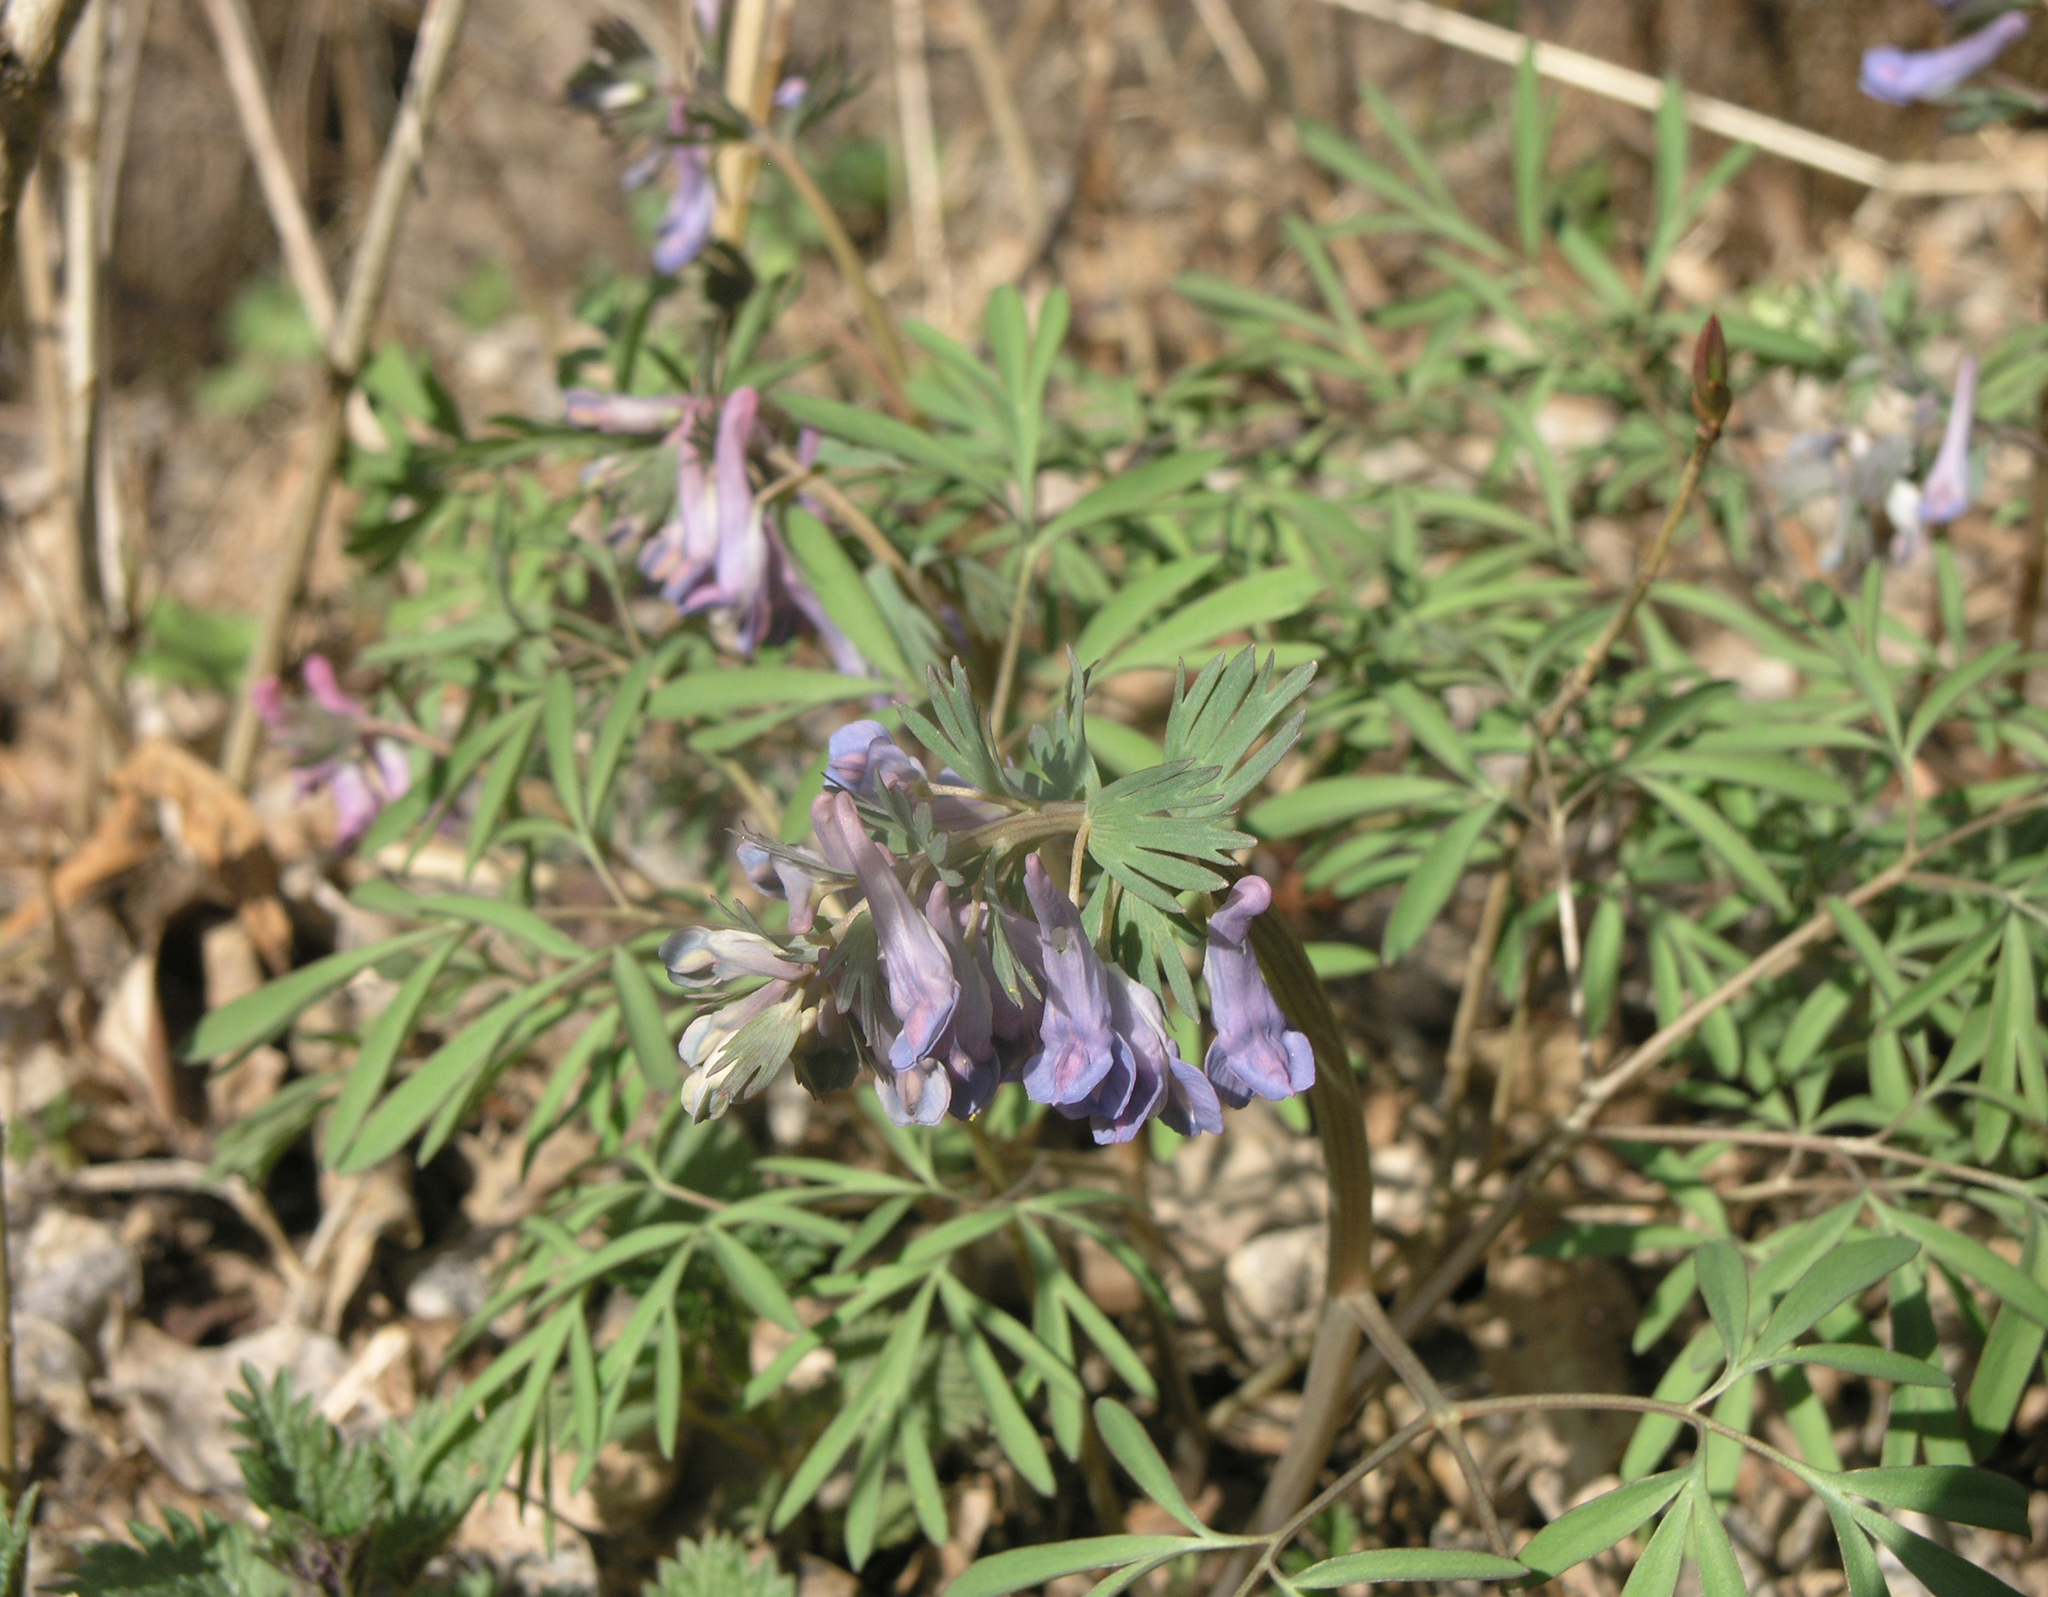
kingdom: Plantae
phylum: Tracheophyta
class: Magnoliopsida
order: Ranunculales
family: Papaveraceae
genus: Corydalis
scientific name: Corydalis subjenisseensis
